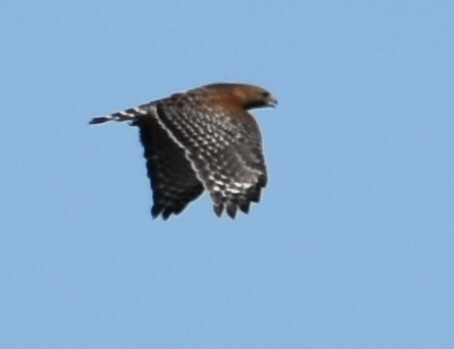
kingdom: Animalia
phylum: Chordata
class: Aves
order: Accipitriformes
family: Accipitridae
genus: Buteo
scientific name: Buteo lineatus
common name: Red-shouldered hawk
